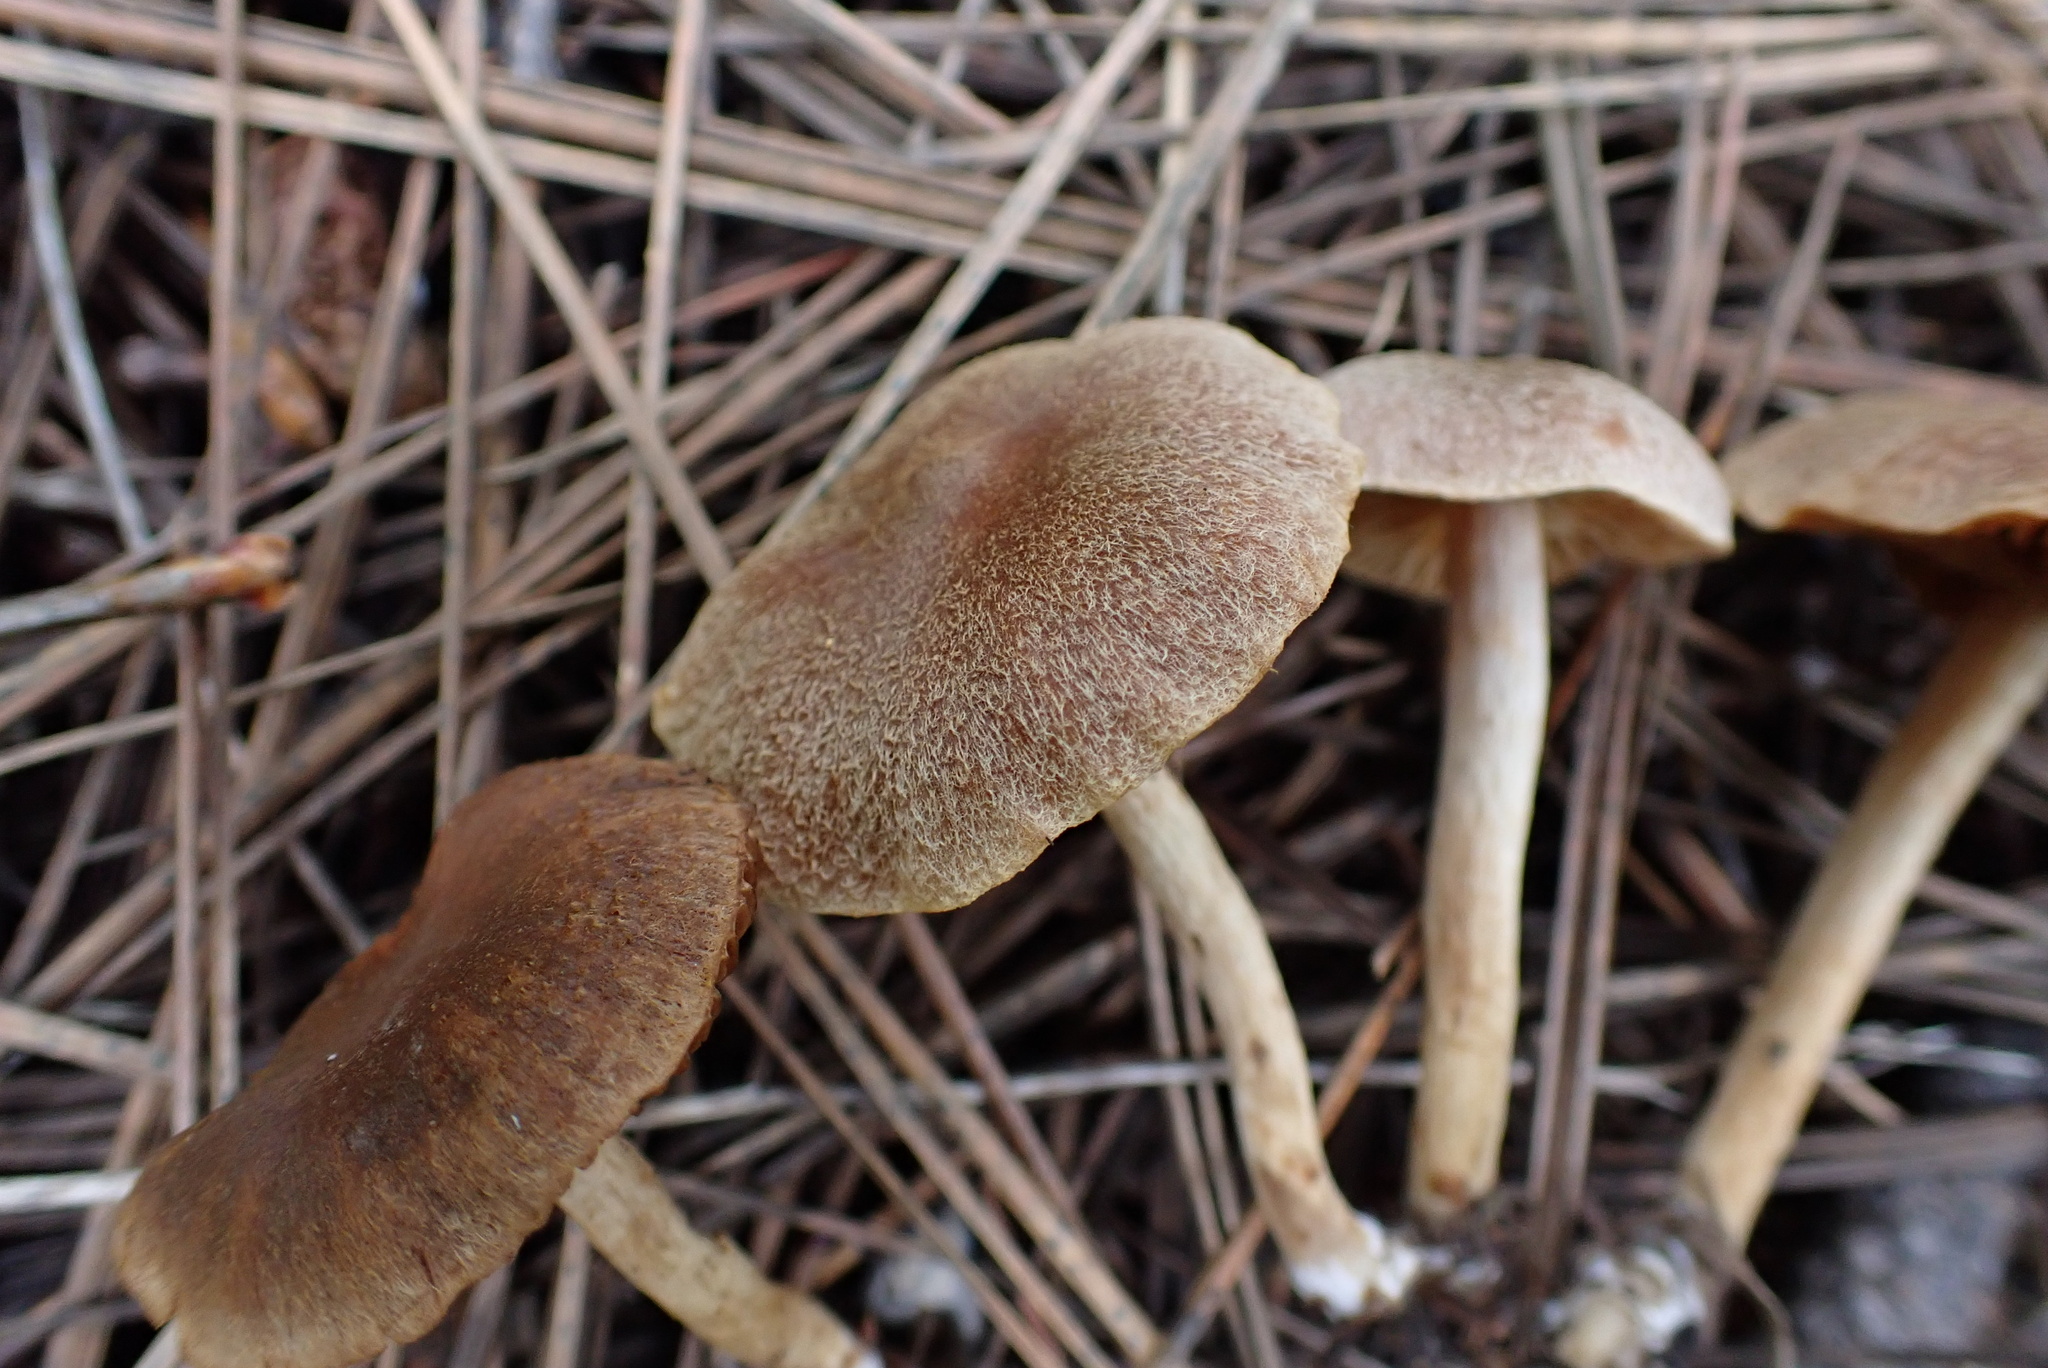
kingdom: Fungi
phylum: Basidiomycota
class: Agaricomycetes
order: Agaricales
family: Cortinariaceae
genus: Cortinarius
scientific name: Cortinarius laetus
